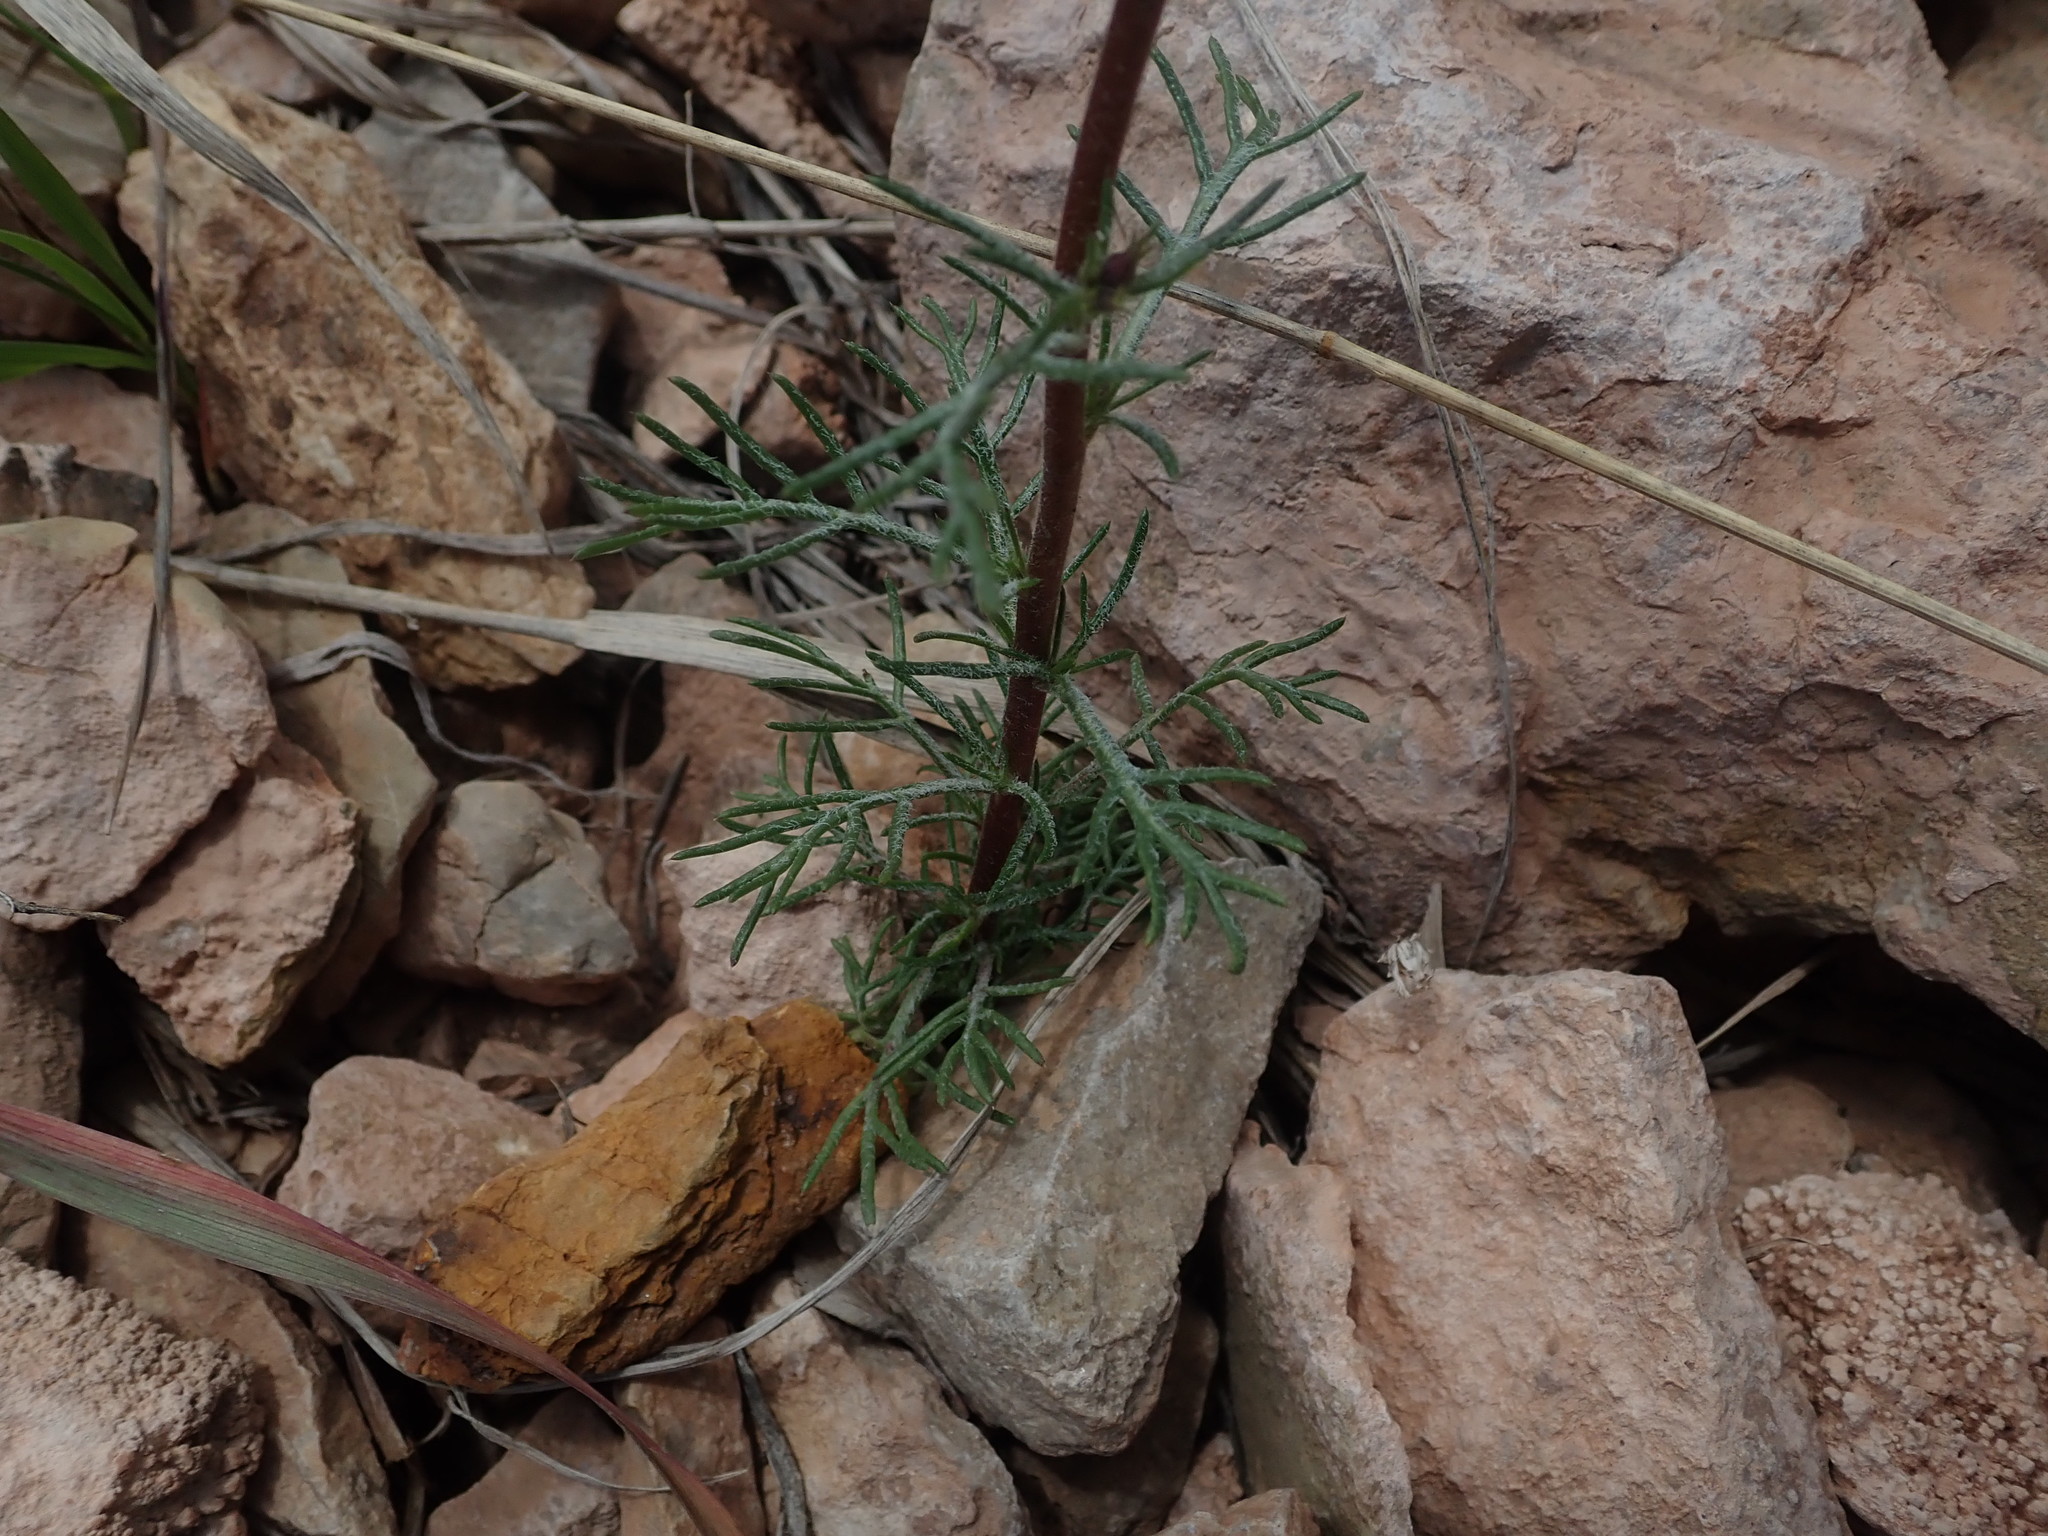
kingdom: Plantae
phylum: Tracheophyta
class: Magnoliopsida
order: Ericales
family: Polemoniaceae
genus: Ipomopsis
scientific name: Ipomopsis aggregata
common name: Scarlet gilia
